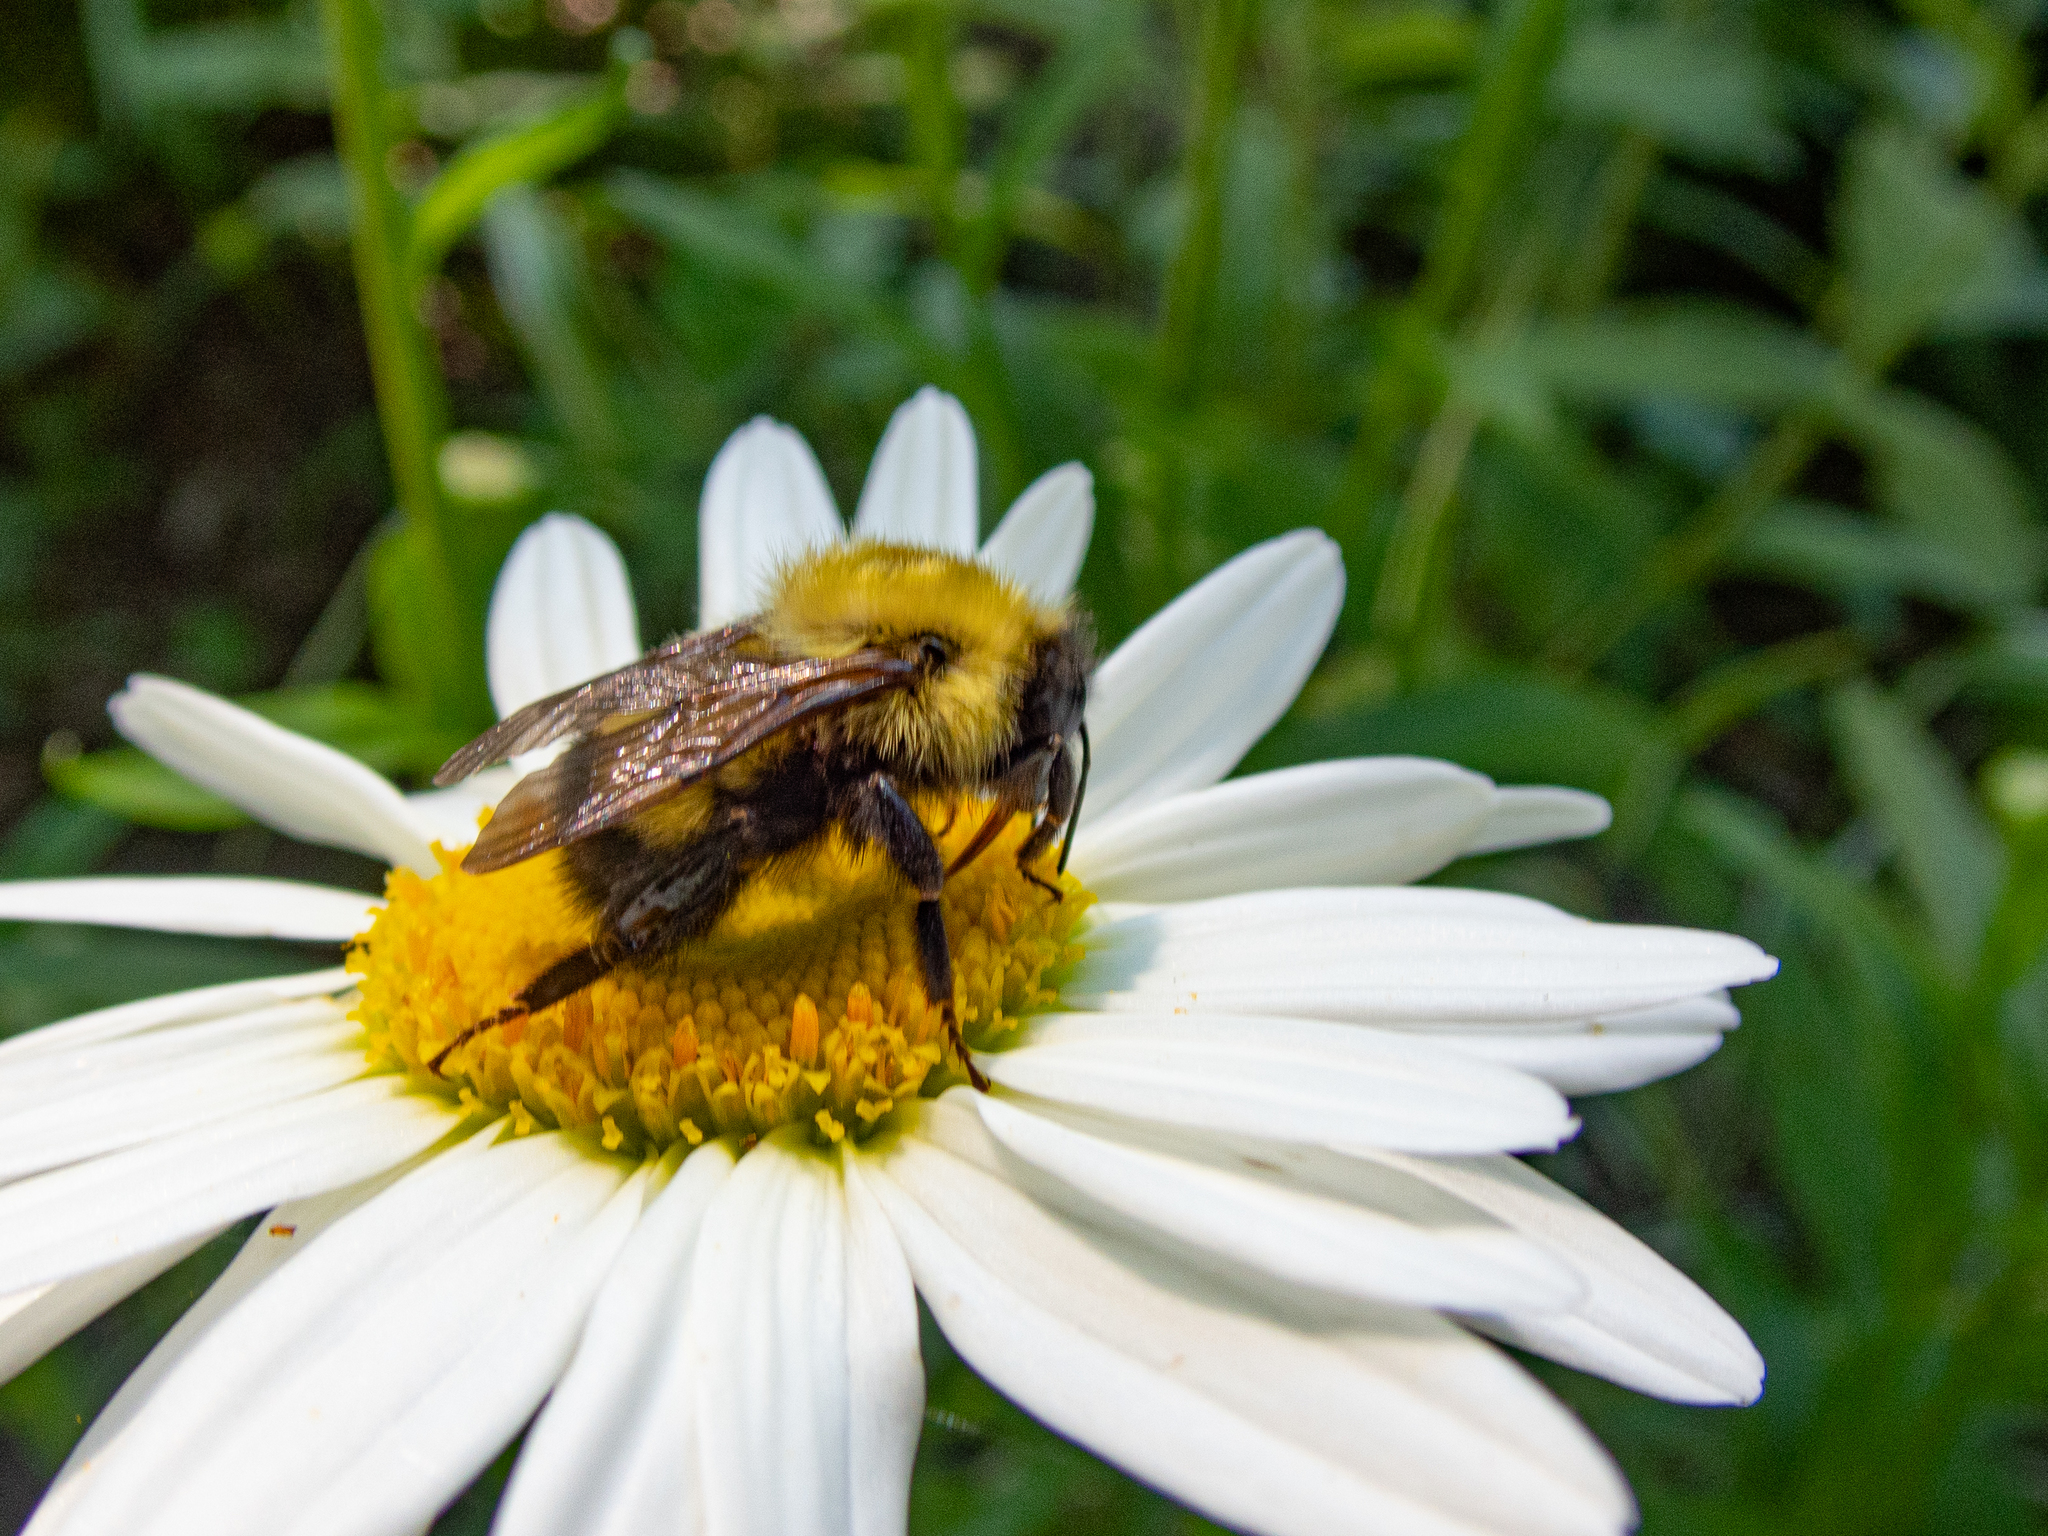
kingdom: Animalia
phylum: Arthropoda
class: Insecta
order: Hymenoptera
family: Apidae
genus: Bombus
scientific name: Bombus perplexus
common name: Confusing bumble bee
